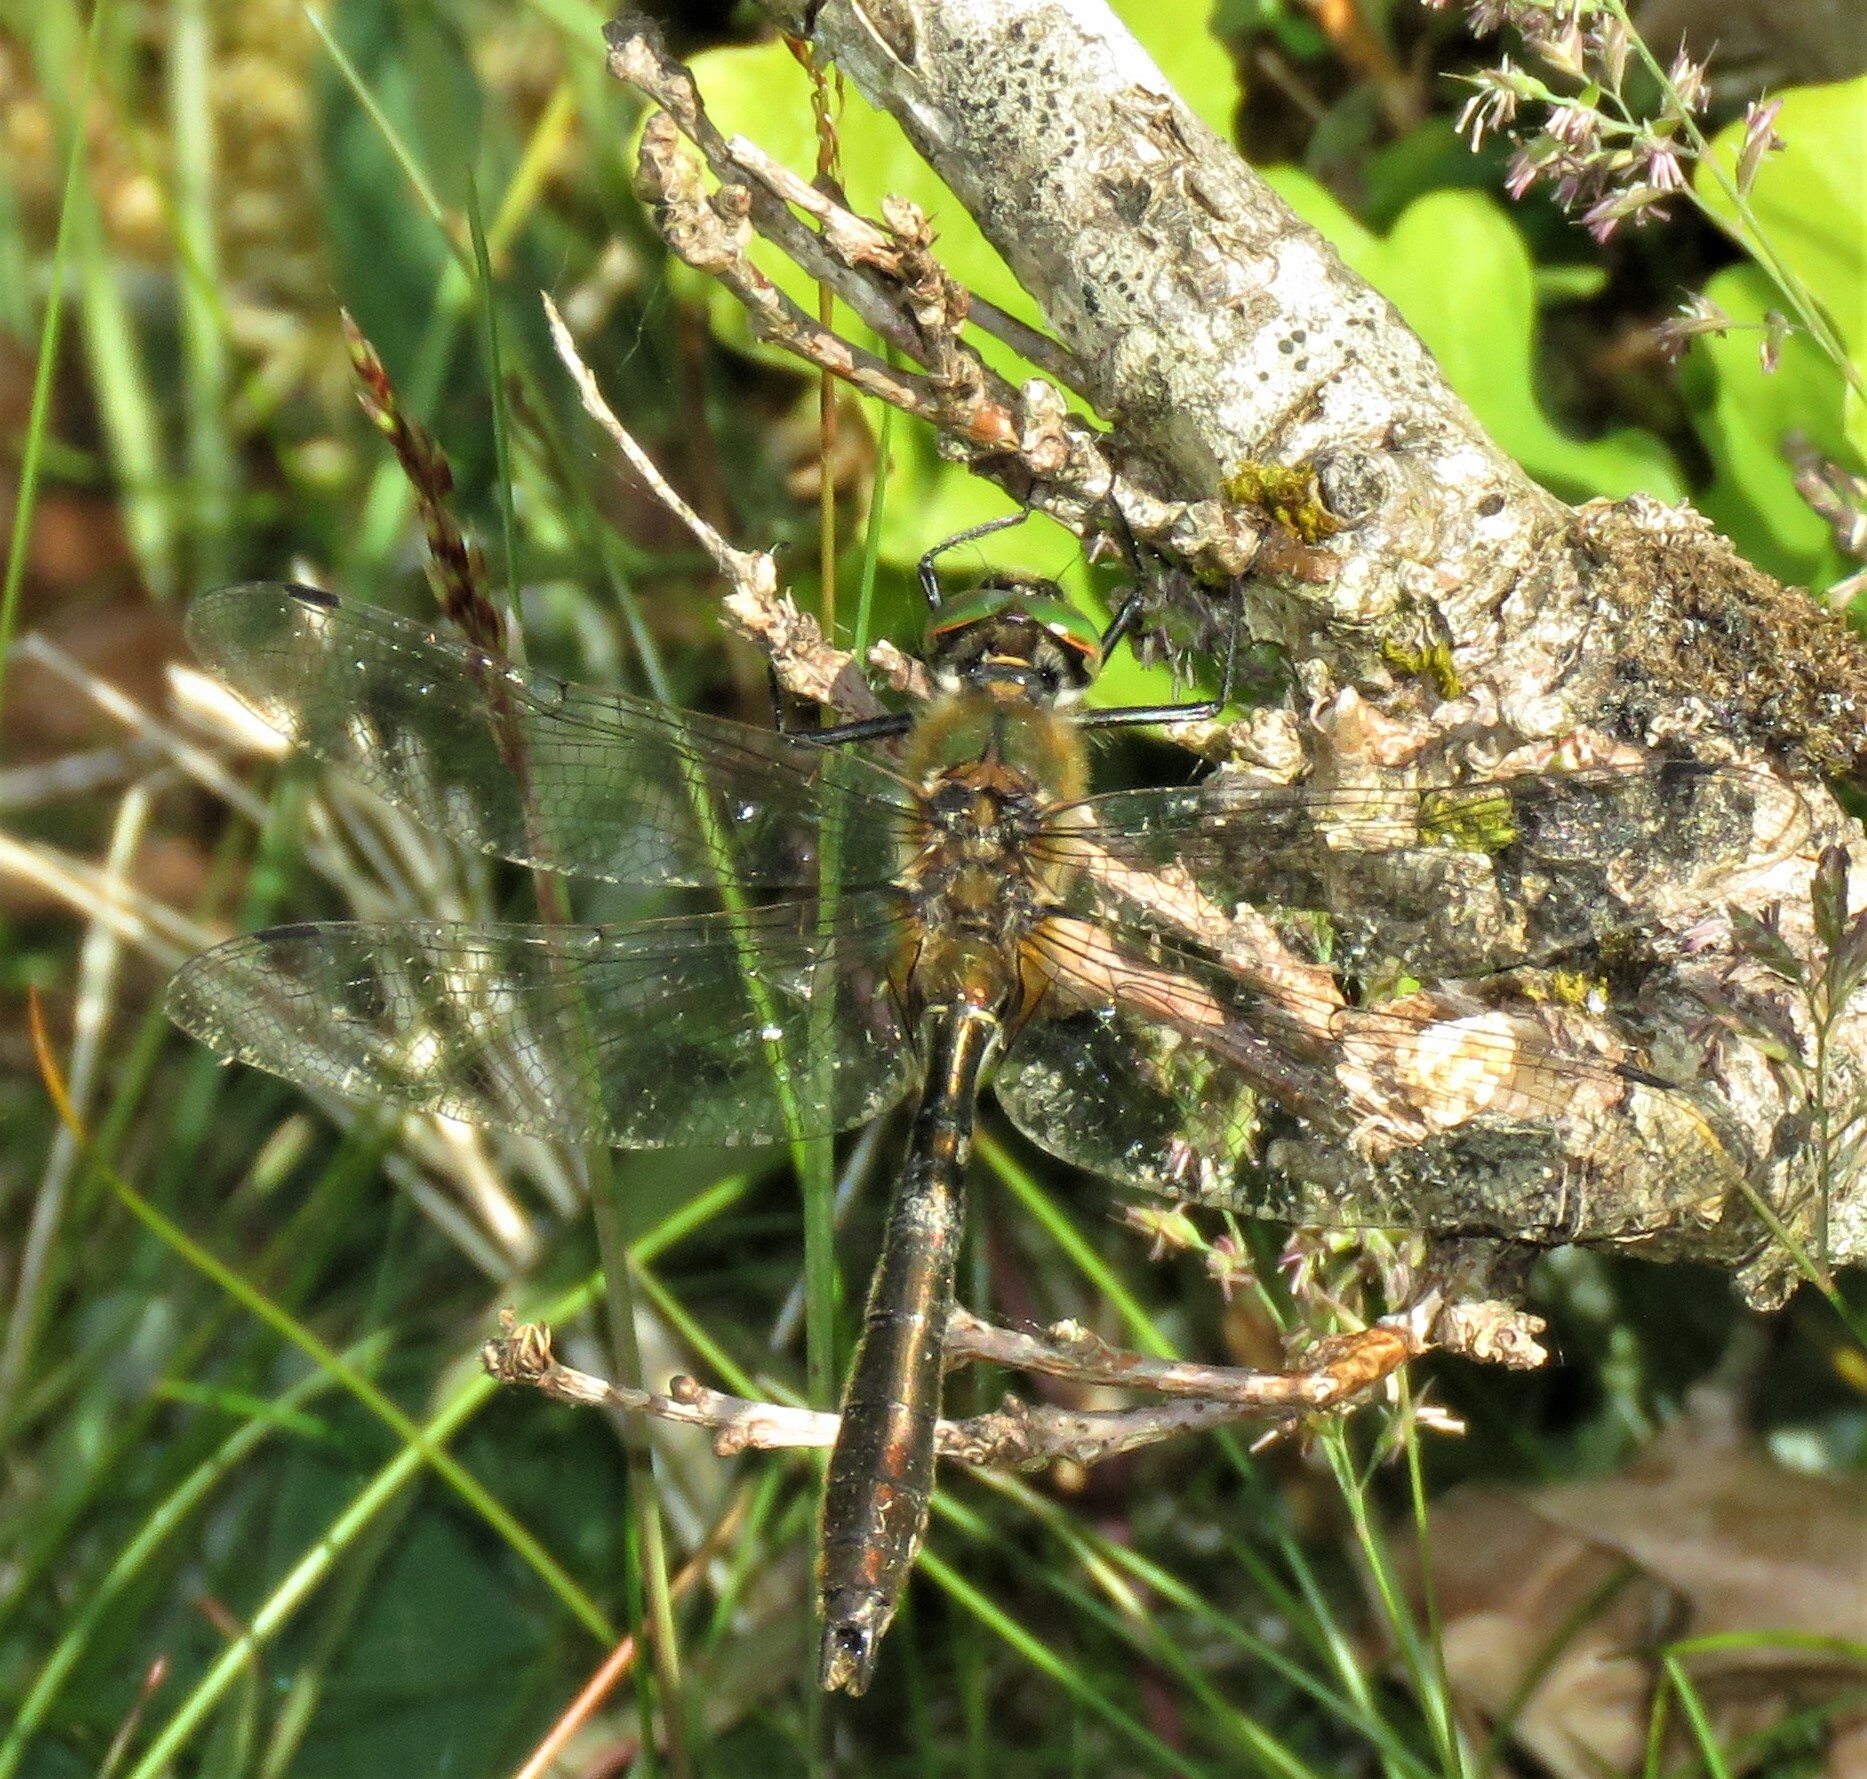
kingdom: Animalia
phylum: Arthropoda
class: Insecta
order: Odonata
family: Corduliidae
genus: Cordulia
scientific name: Cordulia aenea
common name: Downy emerald
